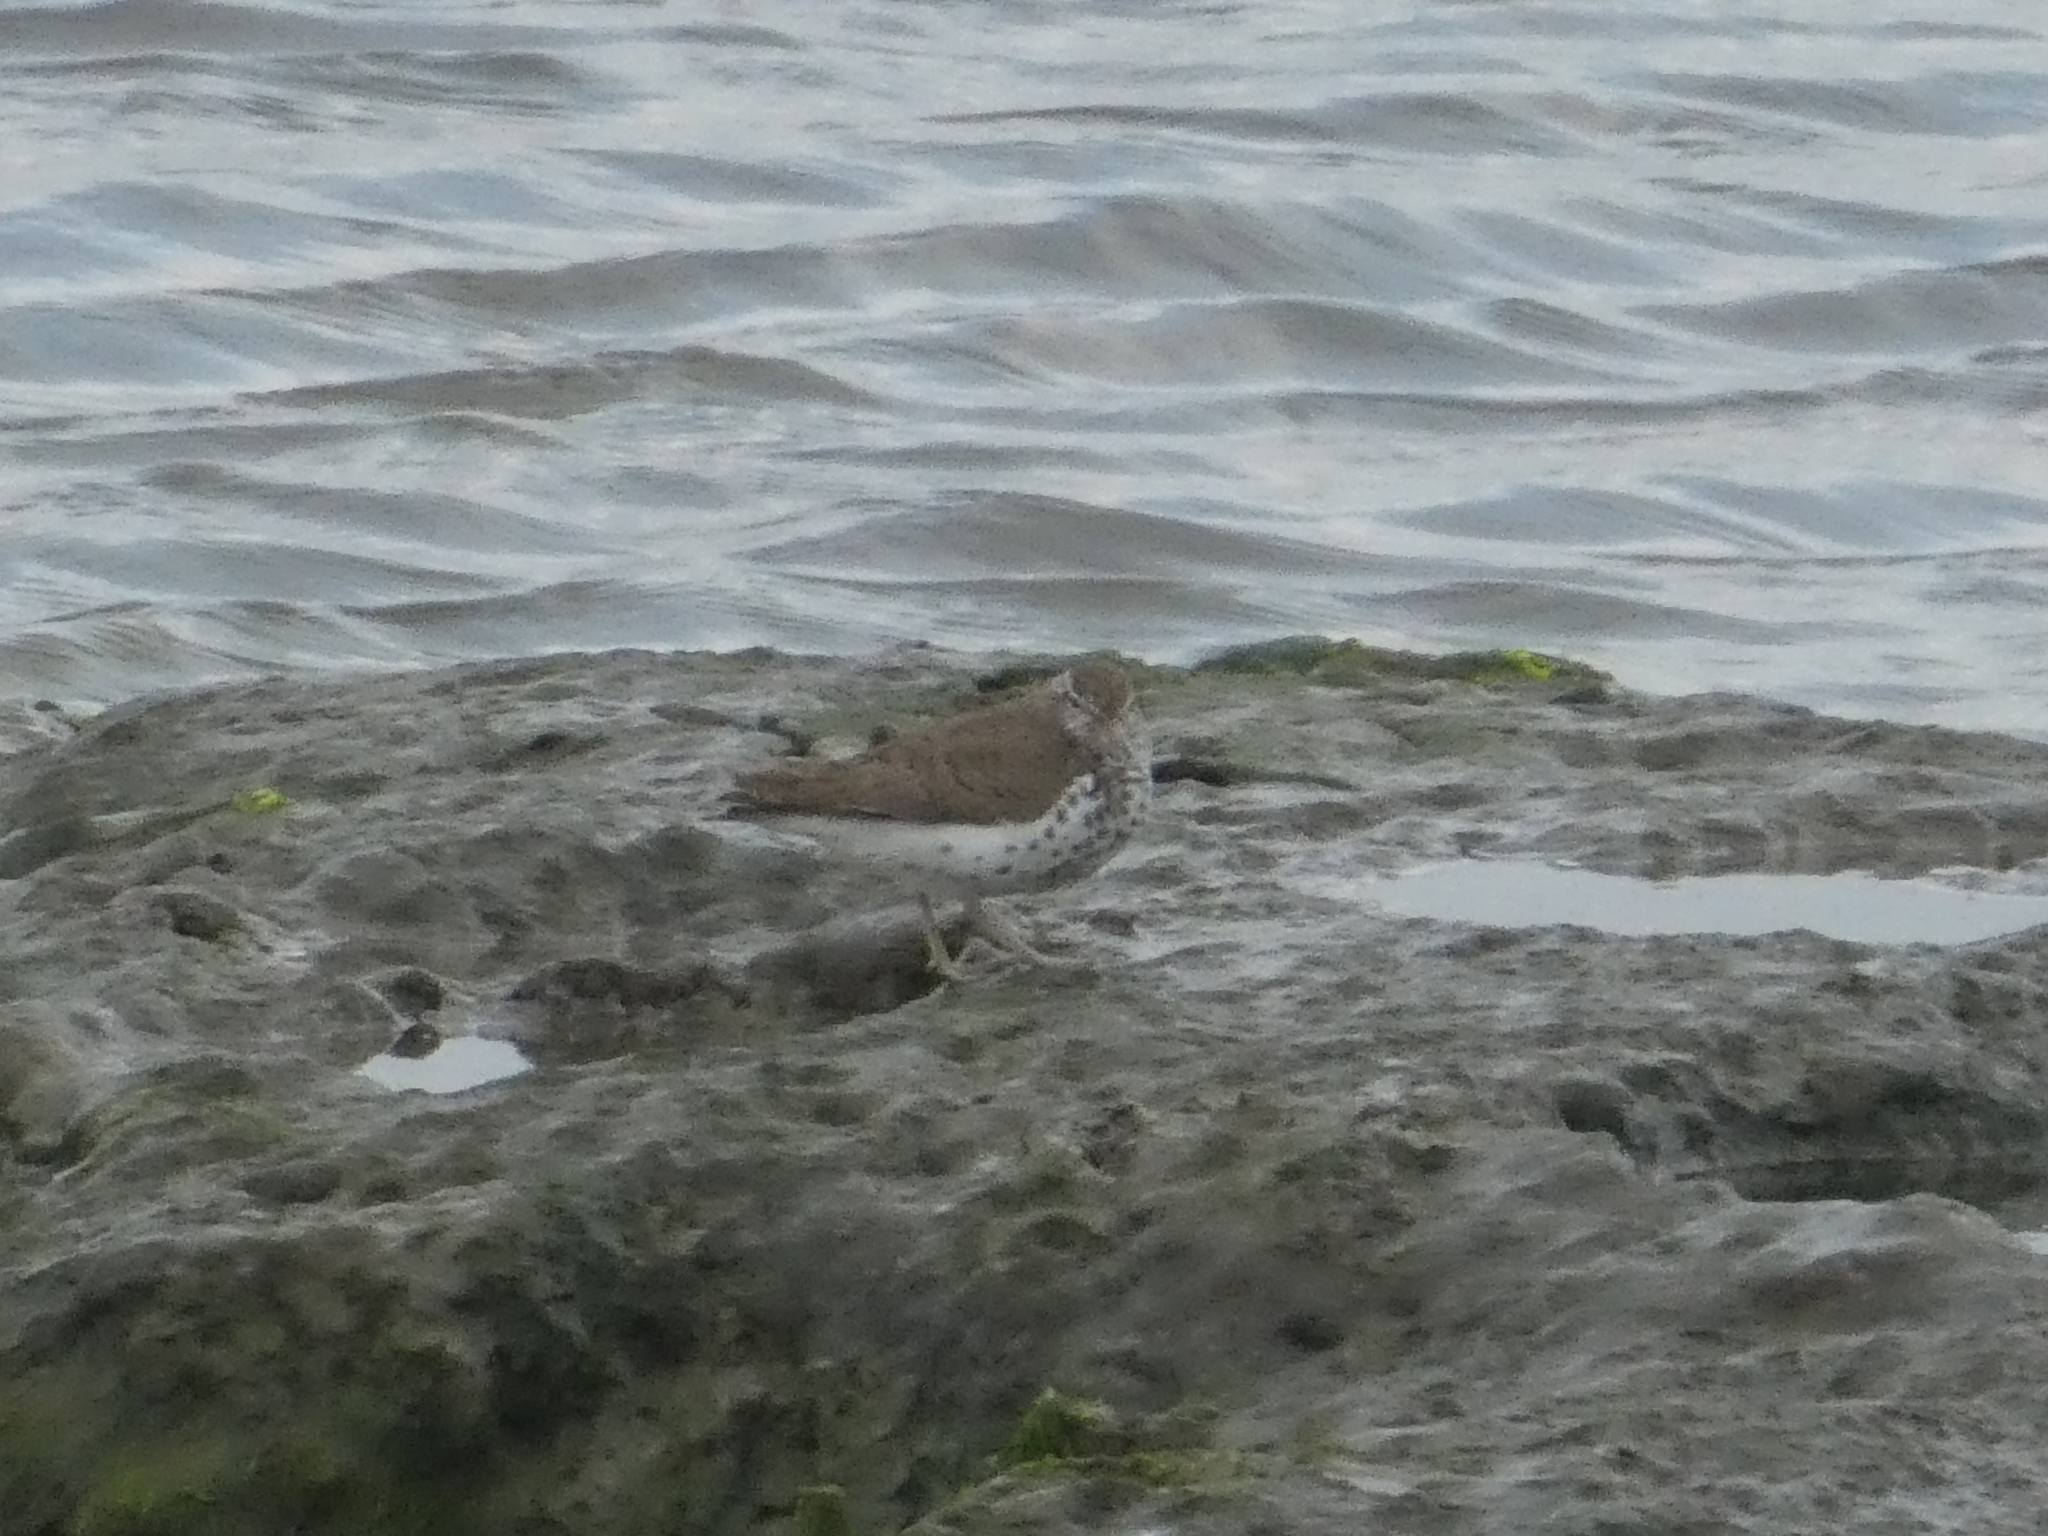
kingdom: Animalia
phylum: Chordata
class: Aves
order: Charadriiformes
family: Scolopacidae
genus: Actitis
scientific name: Actitis macularius
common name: Spotted sandpiper
